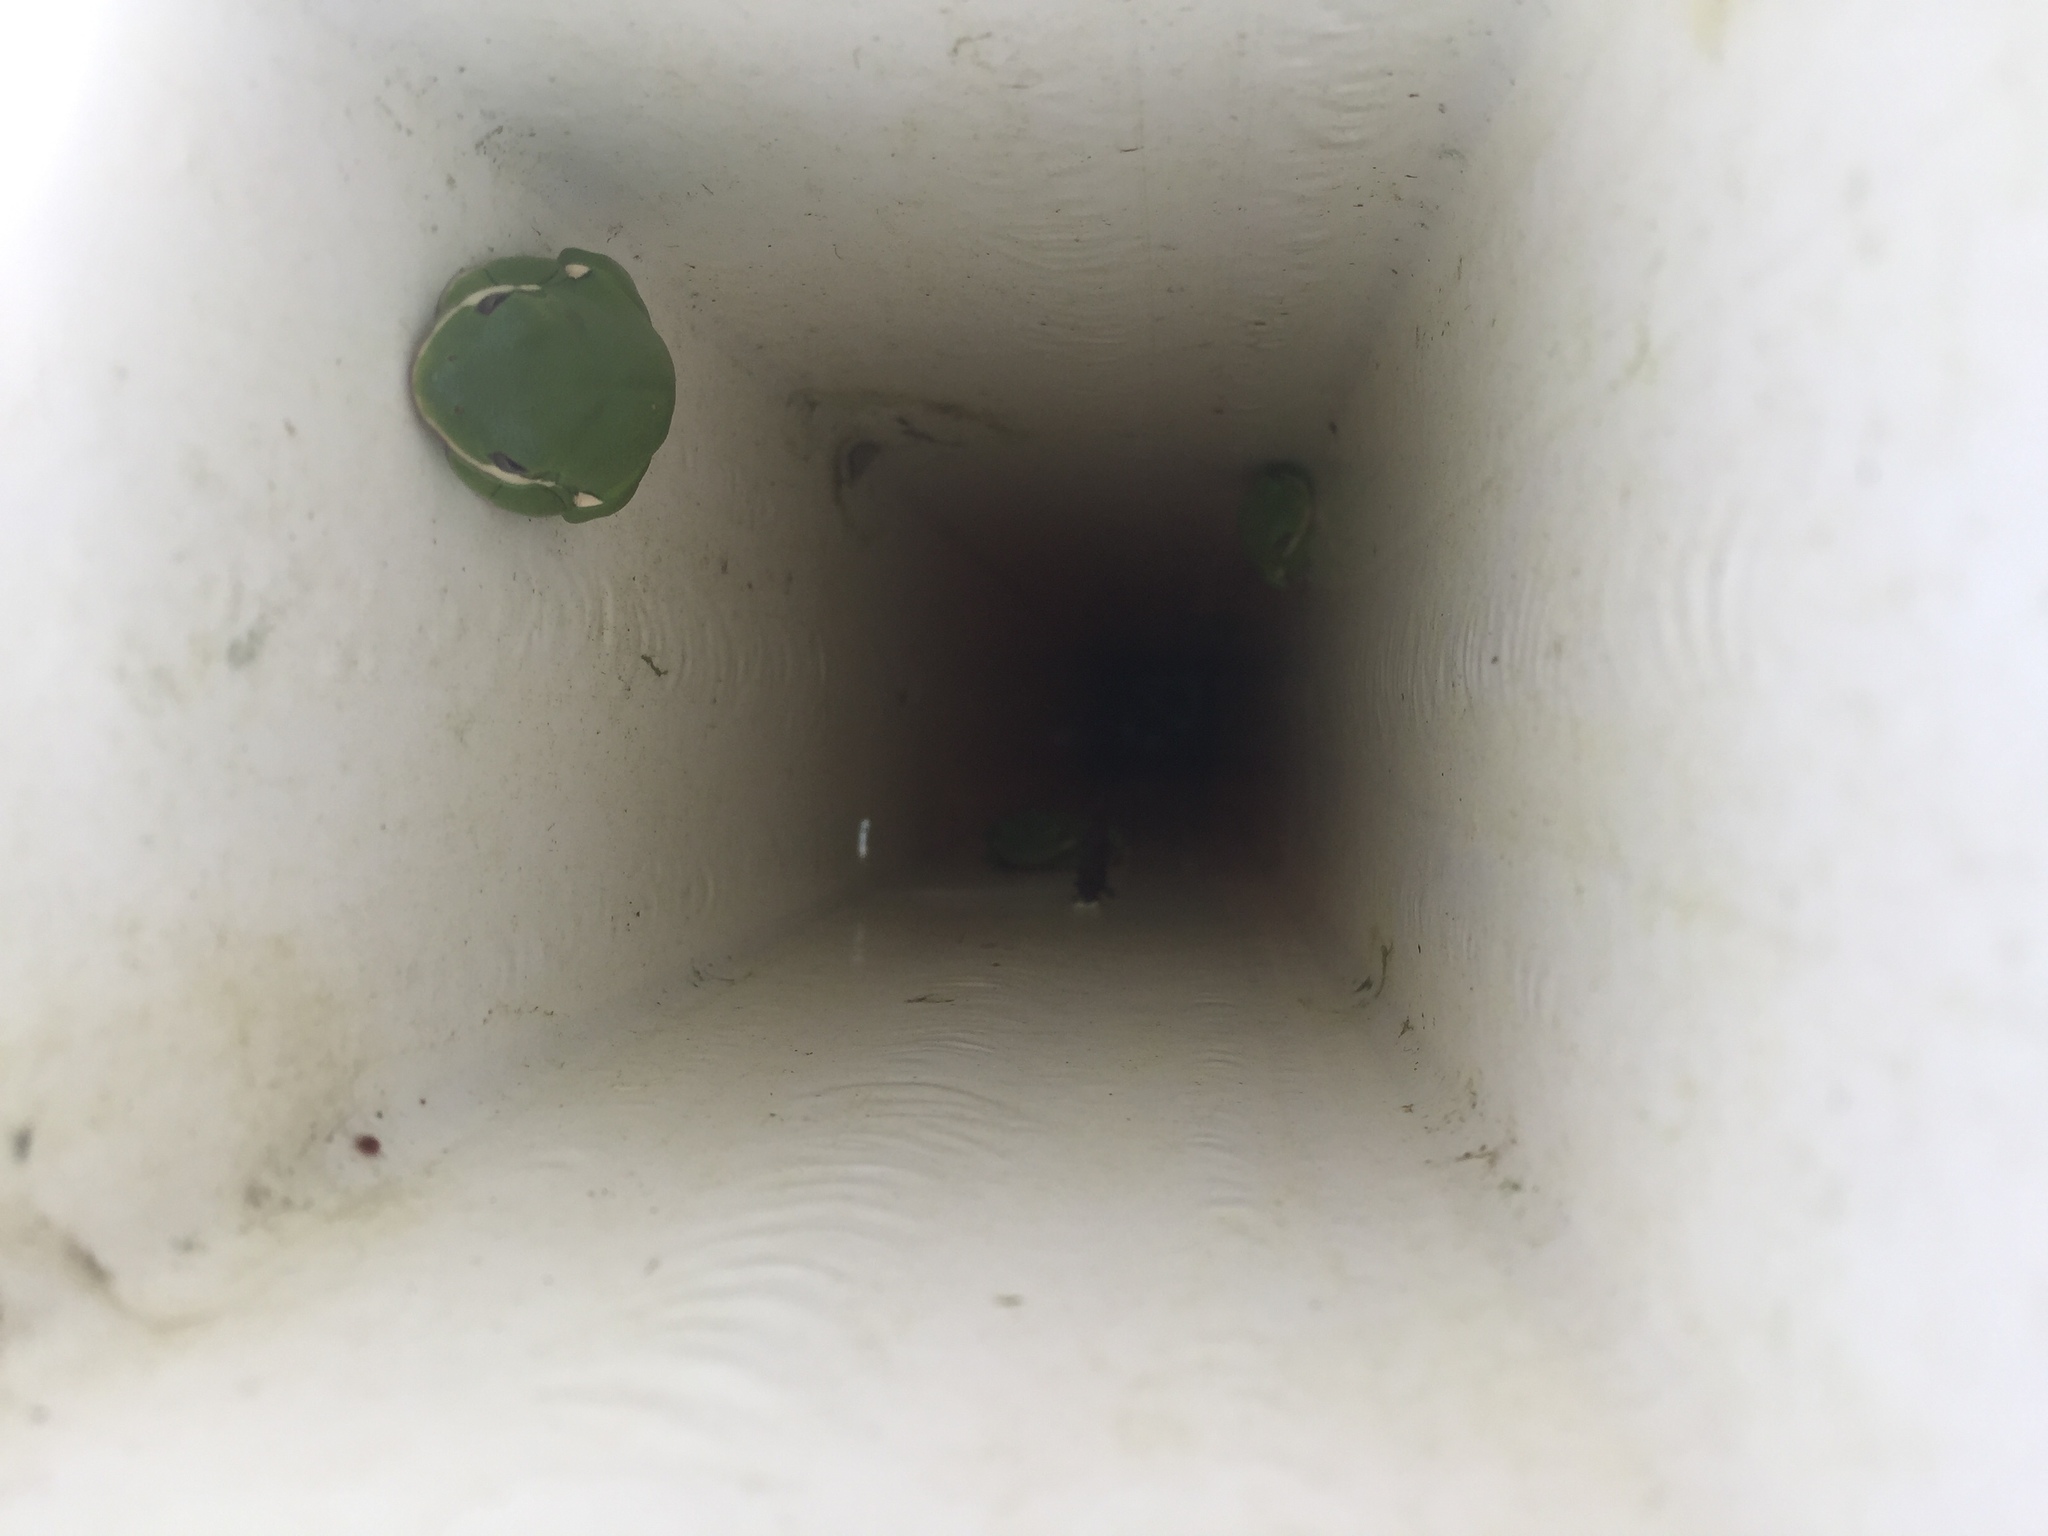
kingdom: Animalia
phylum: Chordata
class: Amphibia
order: Anura
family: Hylidae
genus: Dryophytes
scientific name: Dryophytes cinereus
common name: Green treefrog
